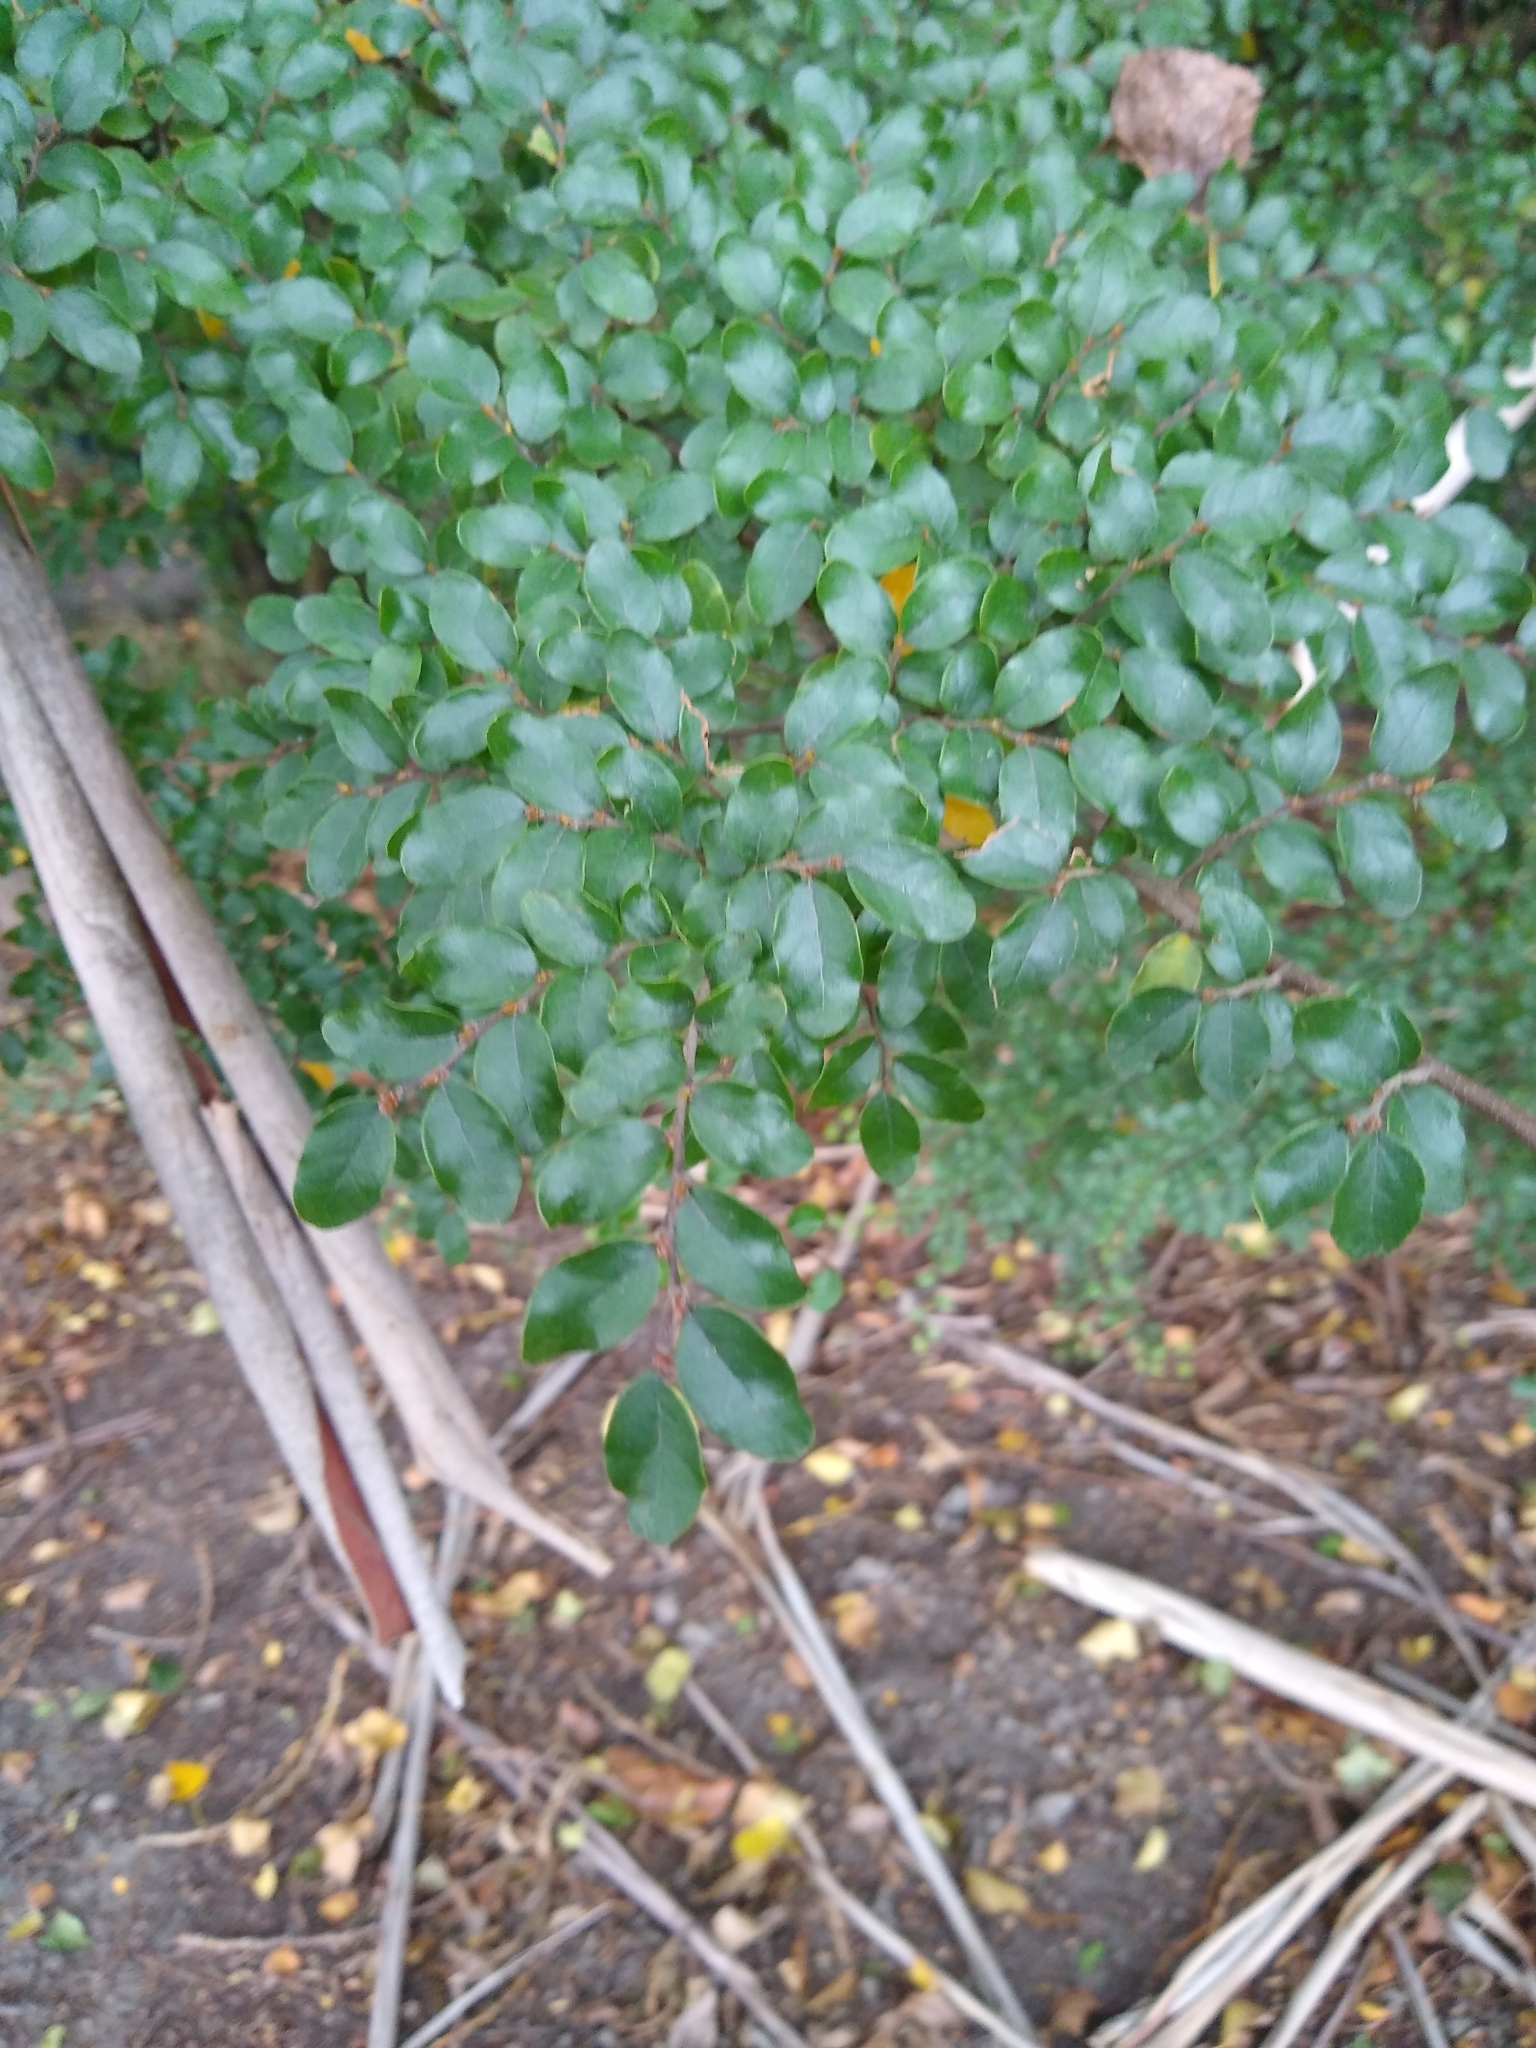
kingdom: Plantae
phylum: Tracheophyta
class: Magnoliopsida
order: Fagales
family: Nothofagaceae
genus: Nothofagus
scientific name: Nothofagus solandri
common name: Black beech
